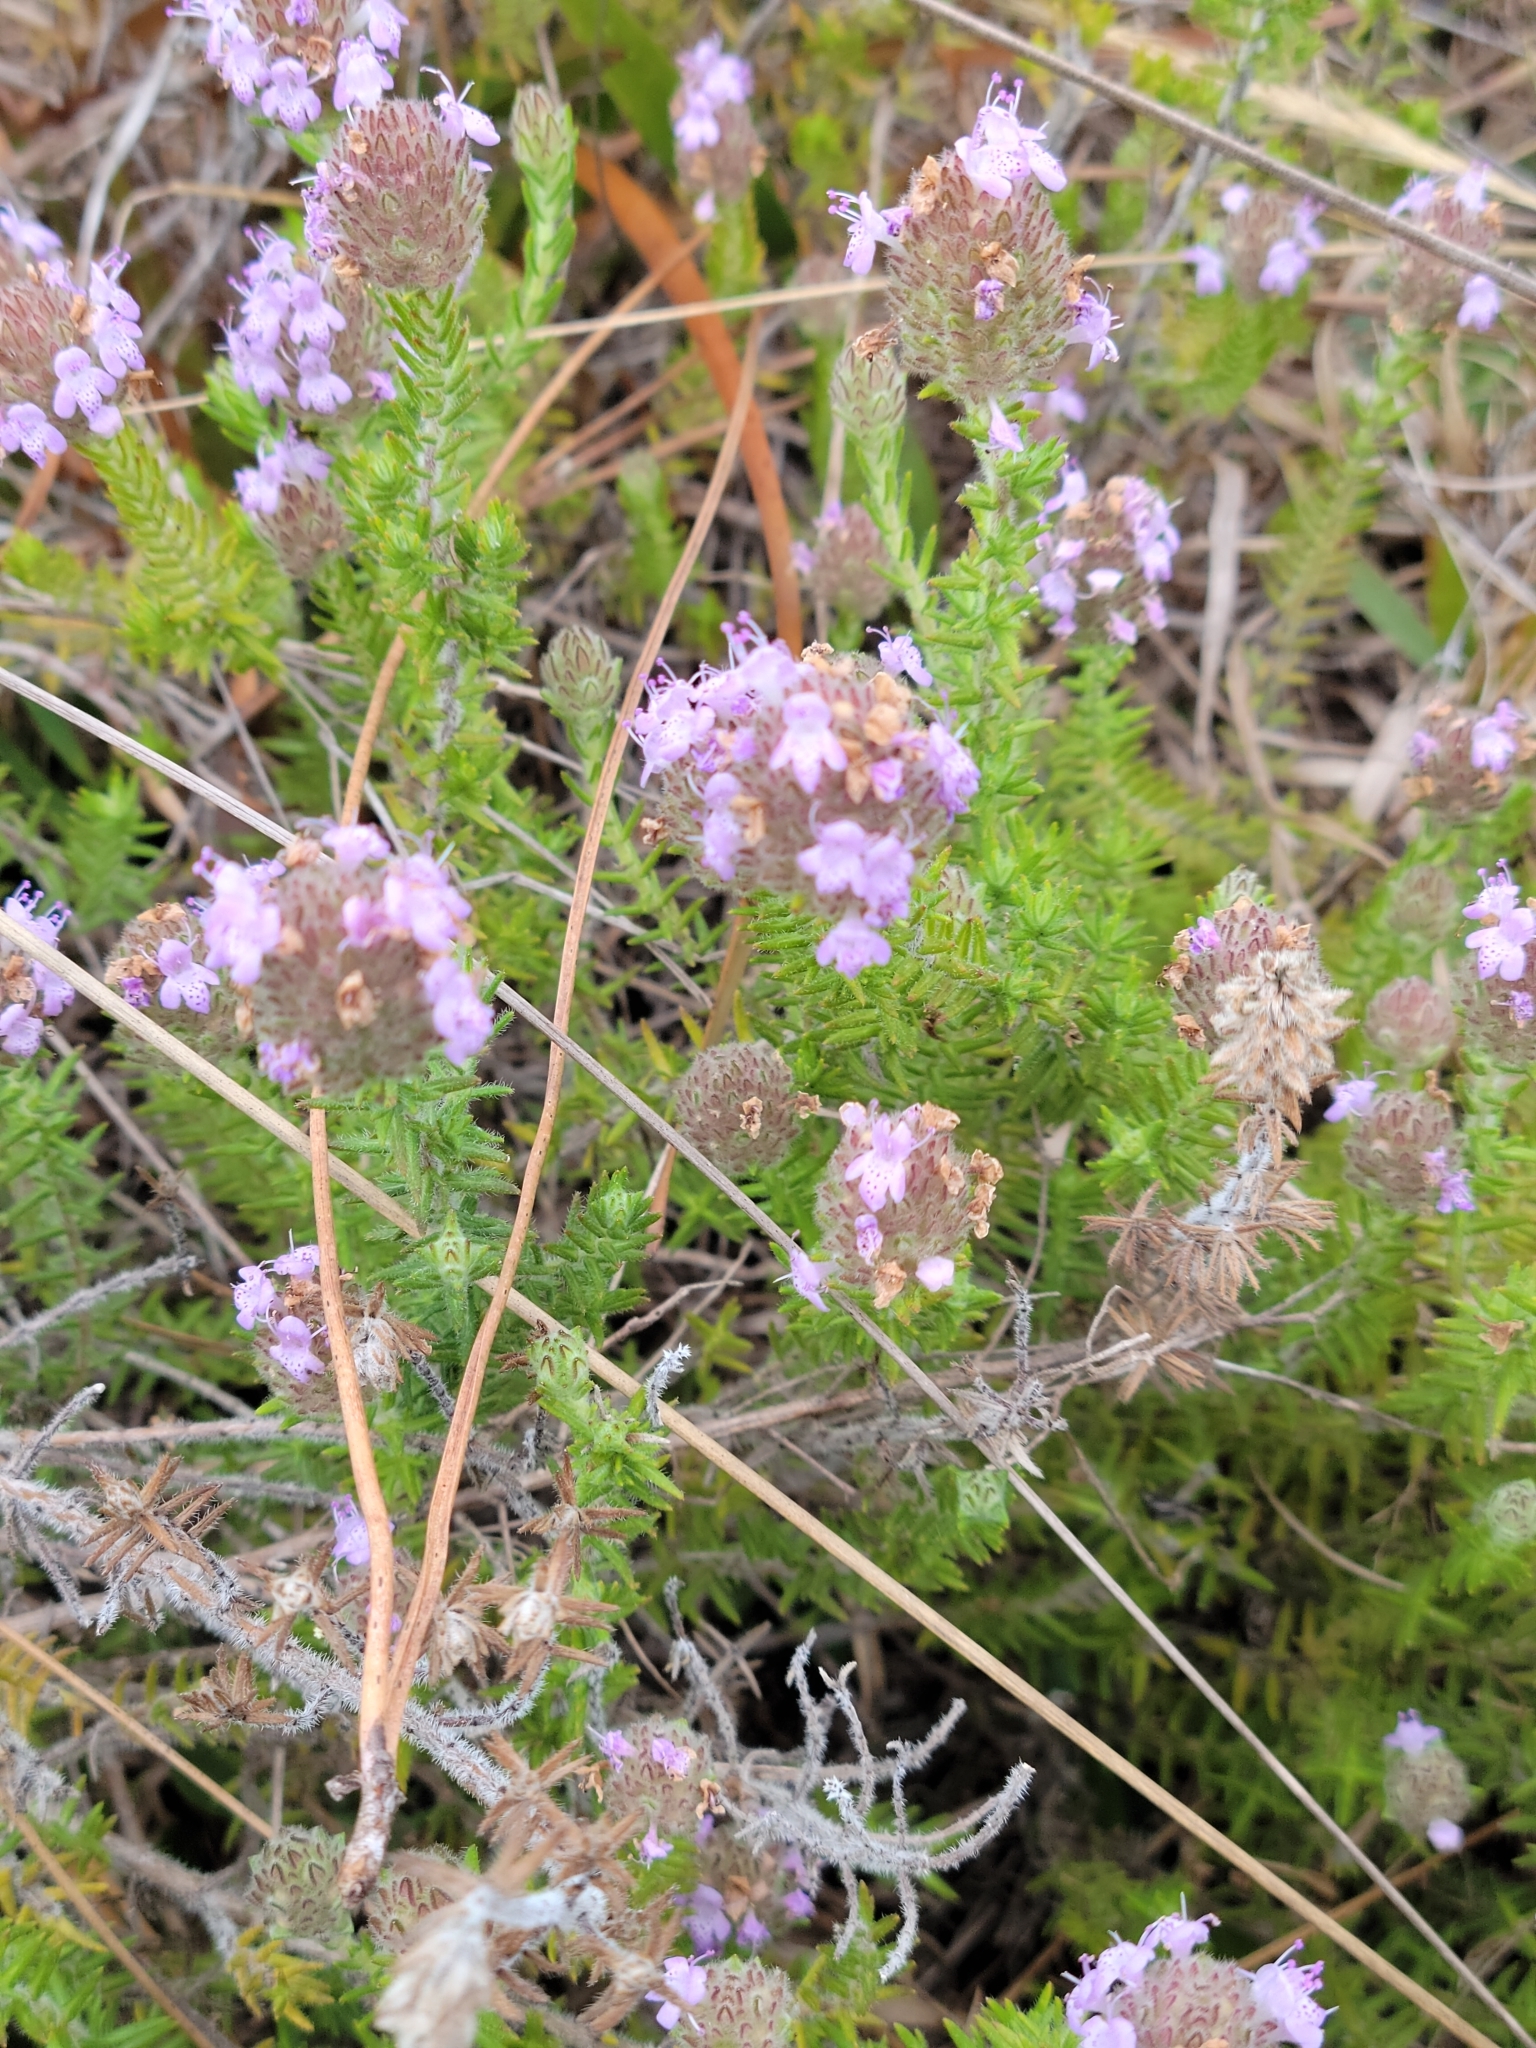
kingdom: Plantae
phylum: Tracheophyta
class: Magnoliopsida
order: Lamiales
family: Lamiaceae
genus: Piloblephis
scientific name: Piloblephis rigida
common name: Wild pennyroyal
